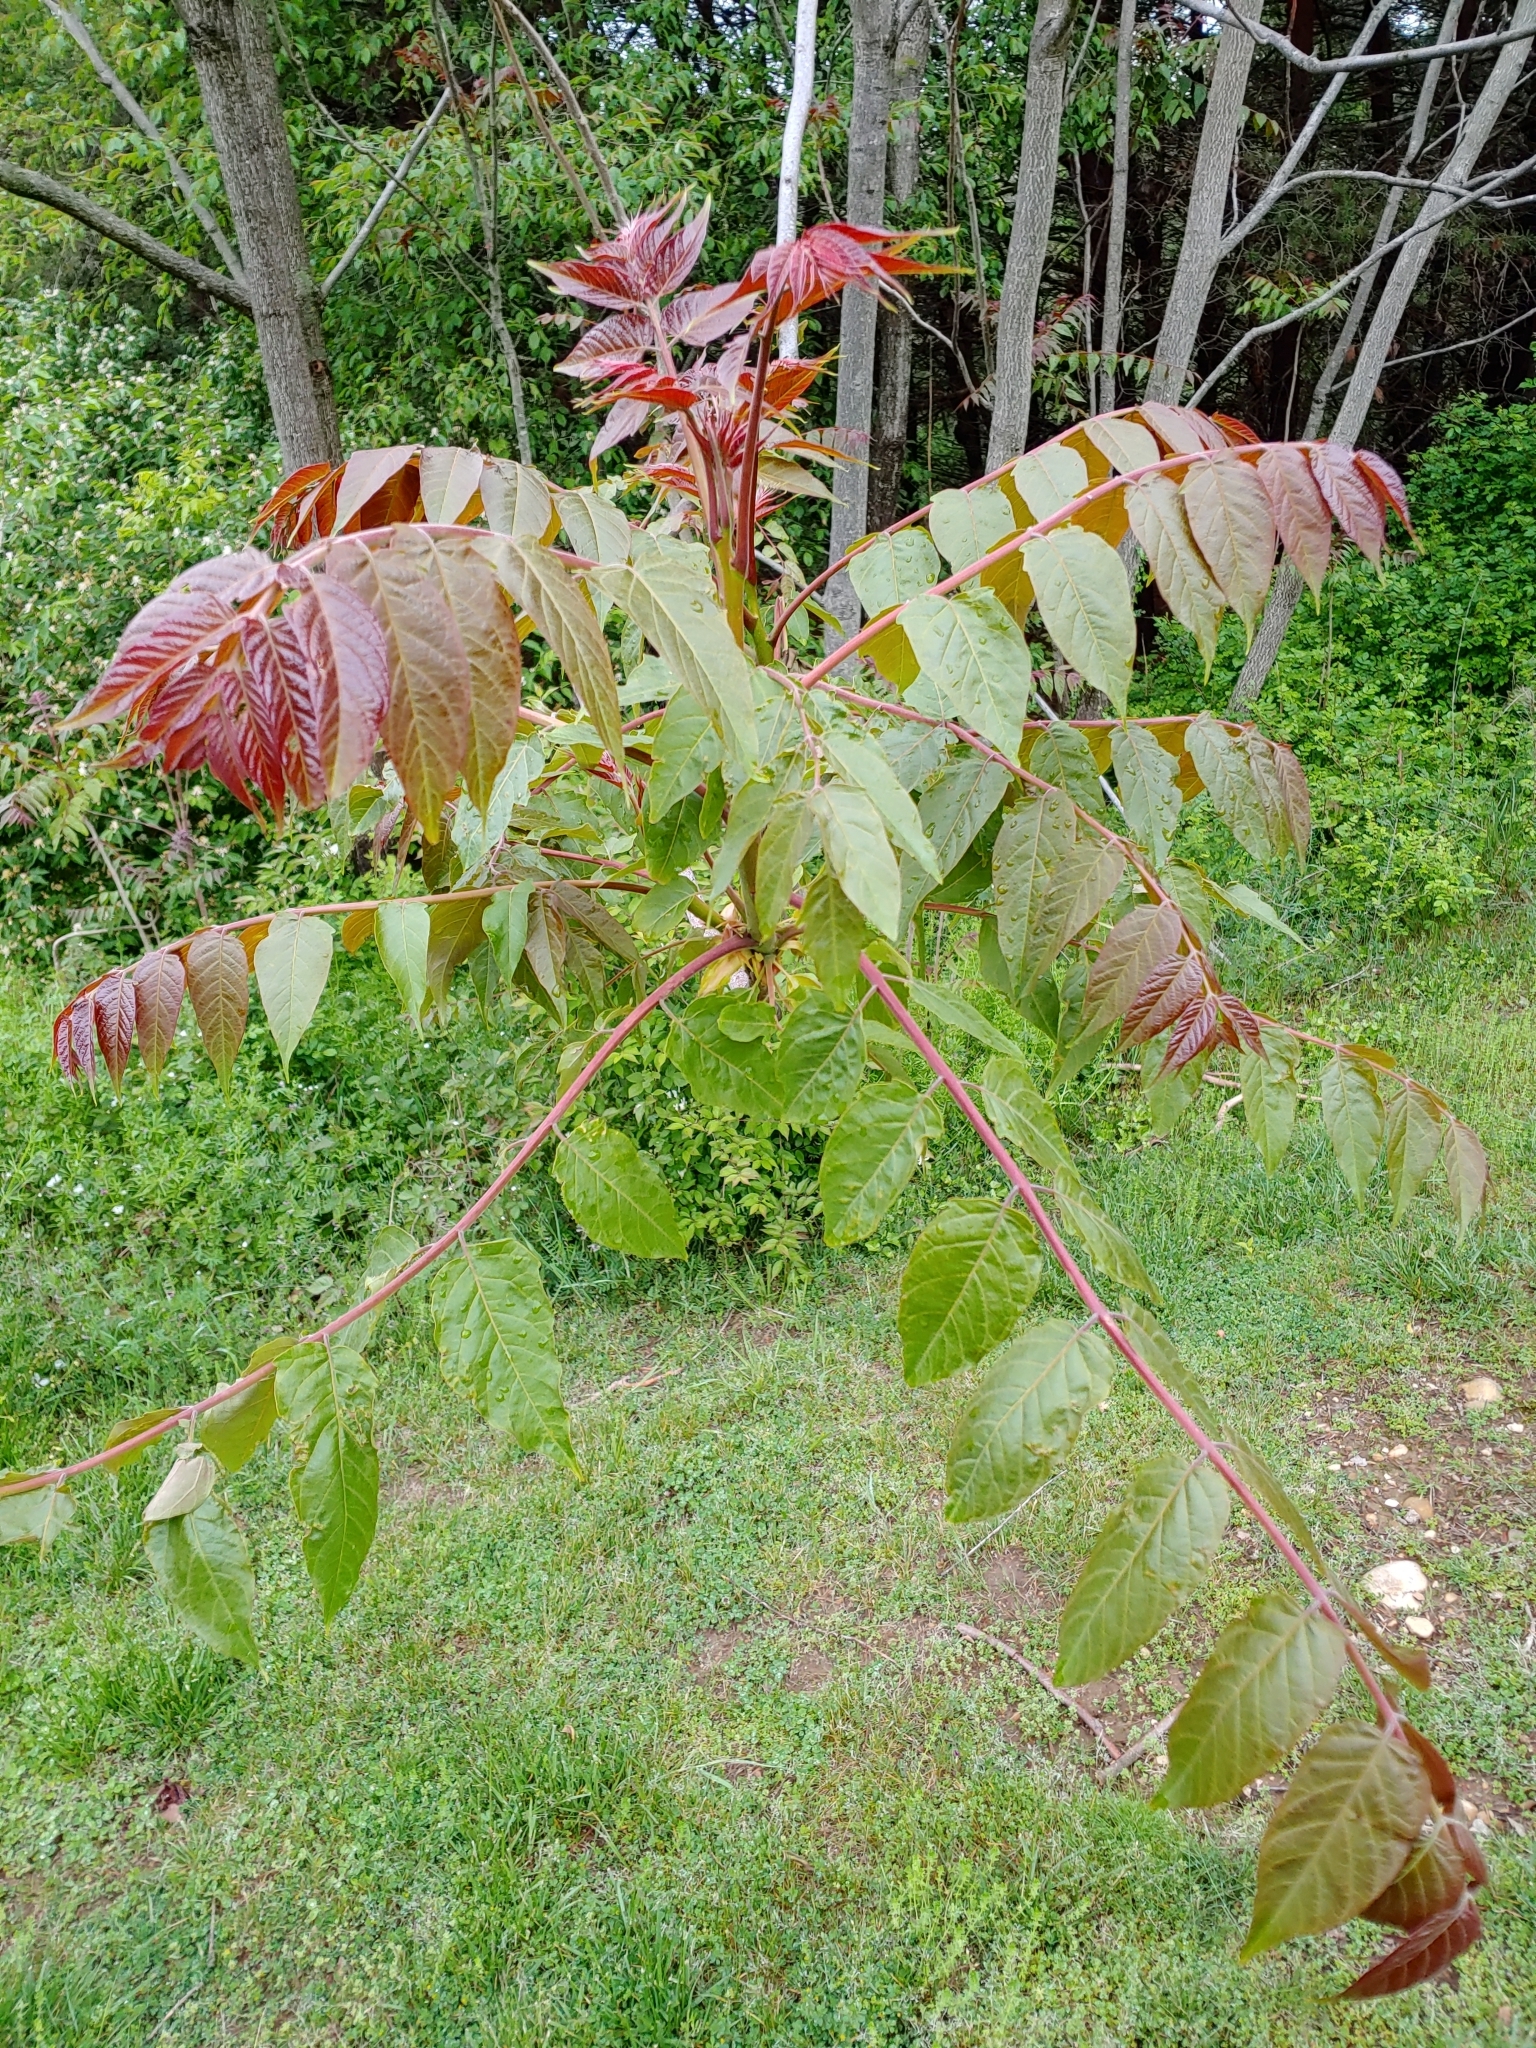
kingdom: Plantae
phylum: Tracheophyta
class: Magnoliopsida
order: Sapindales
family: Simaroubaceae
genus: Ailanthus
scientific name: Ailanthus altissima
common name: Tree-of-heaven
